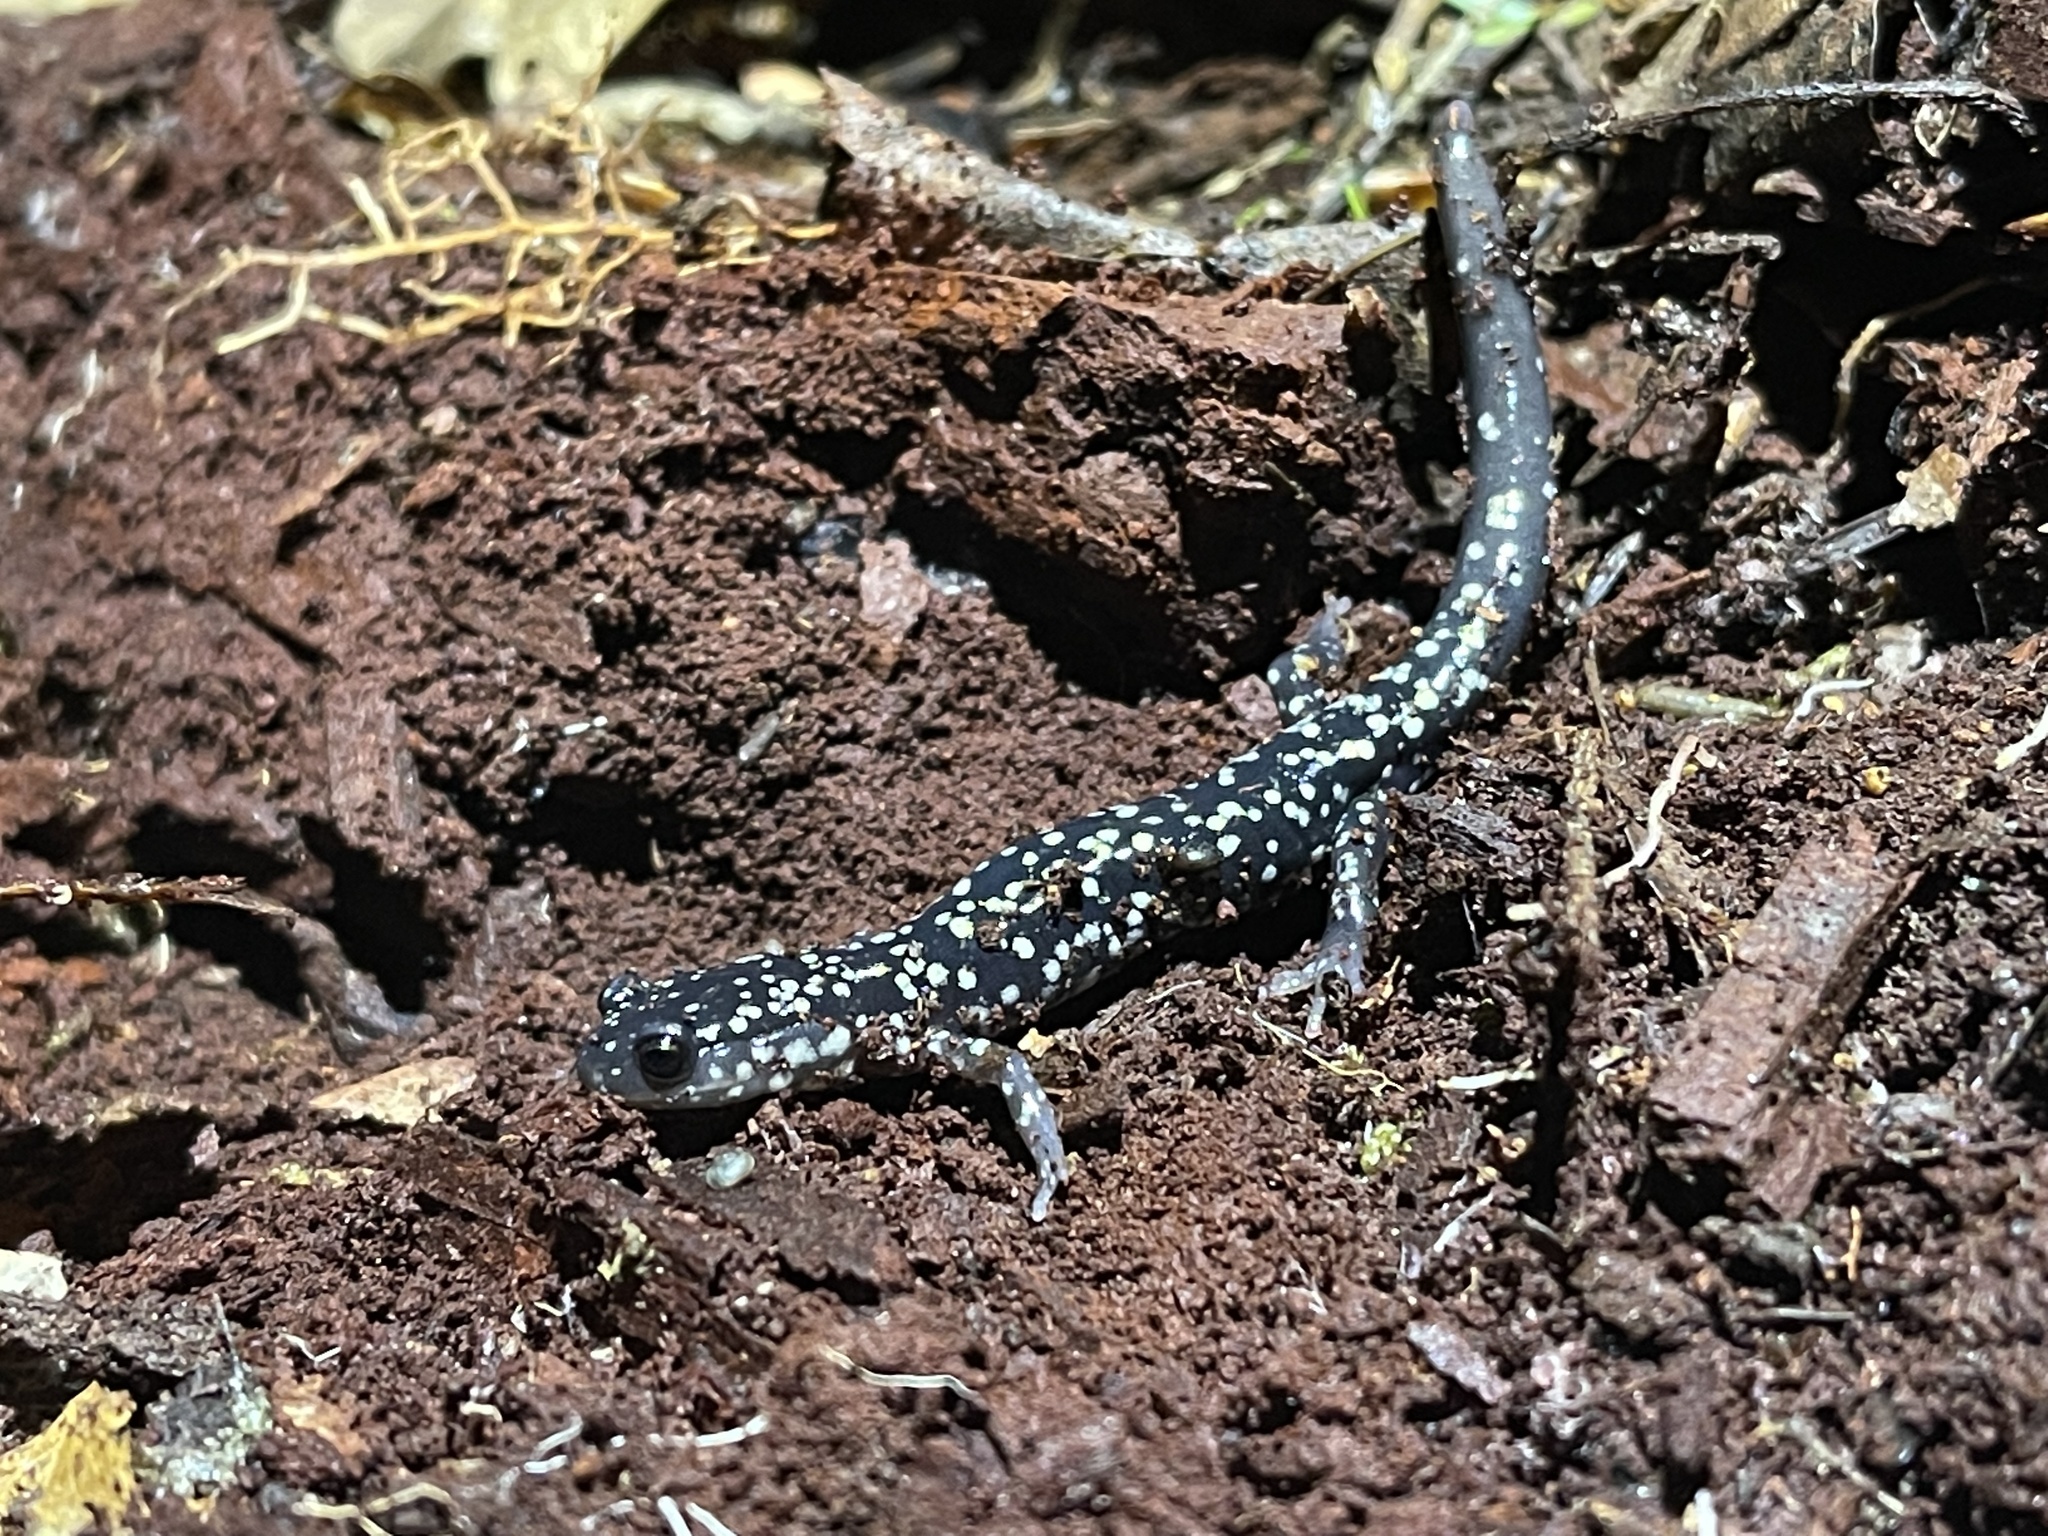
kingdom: Animalia
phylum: Chordata
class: Amphibia
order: Caudata
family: Plethodontidae
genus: Plethodon
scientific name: Plethodon glutinosus
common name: Northern slimy salamander
